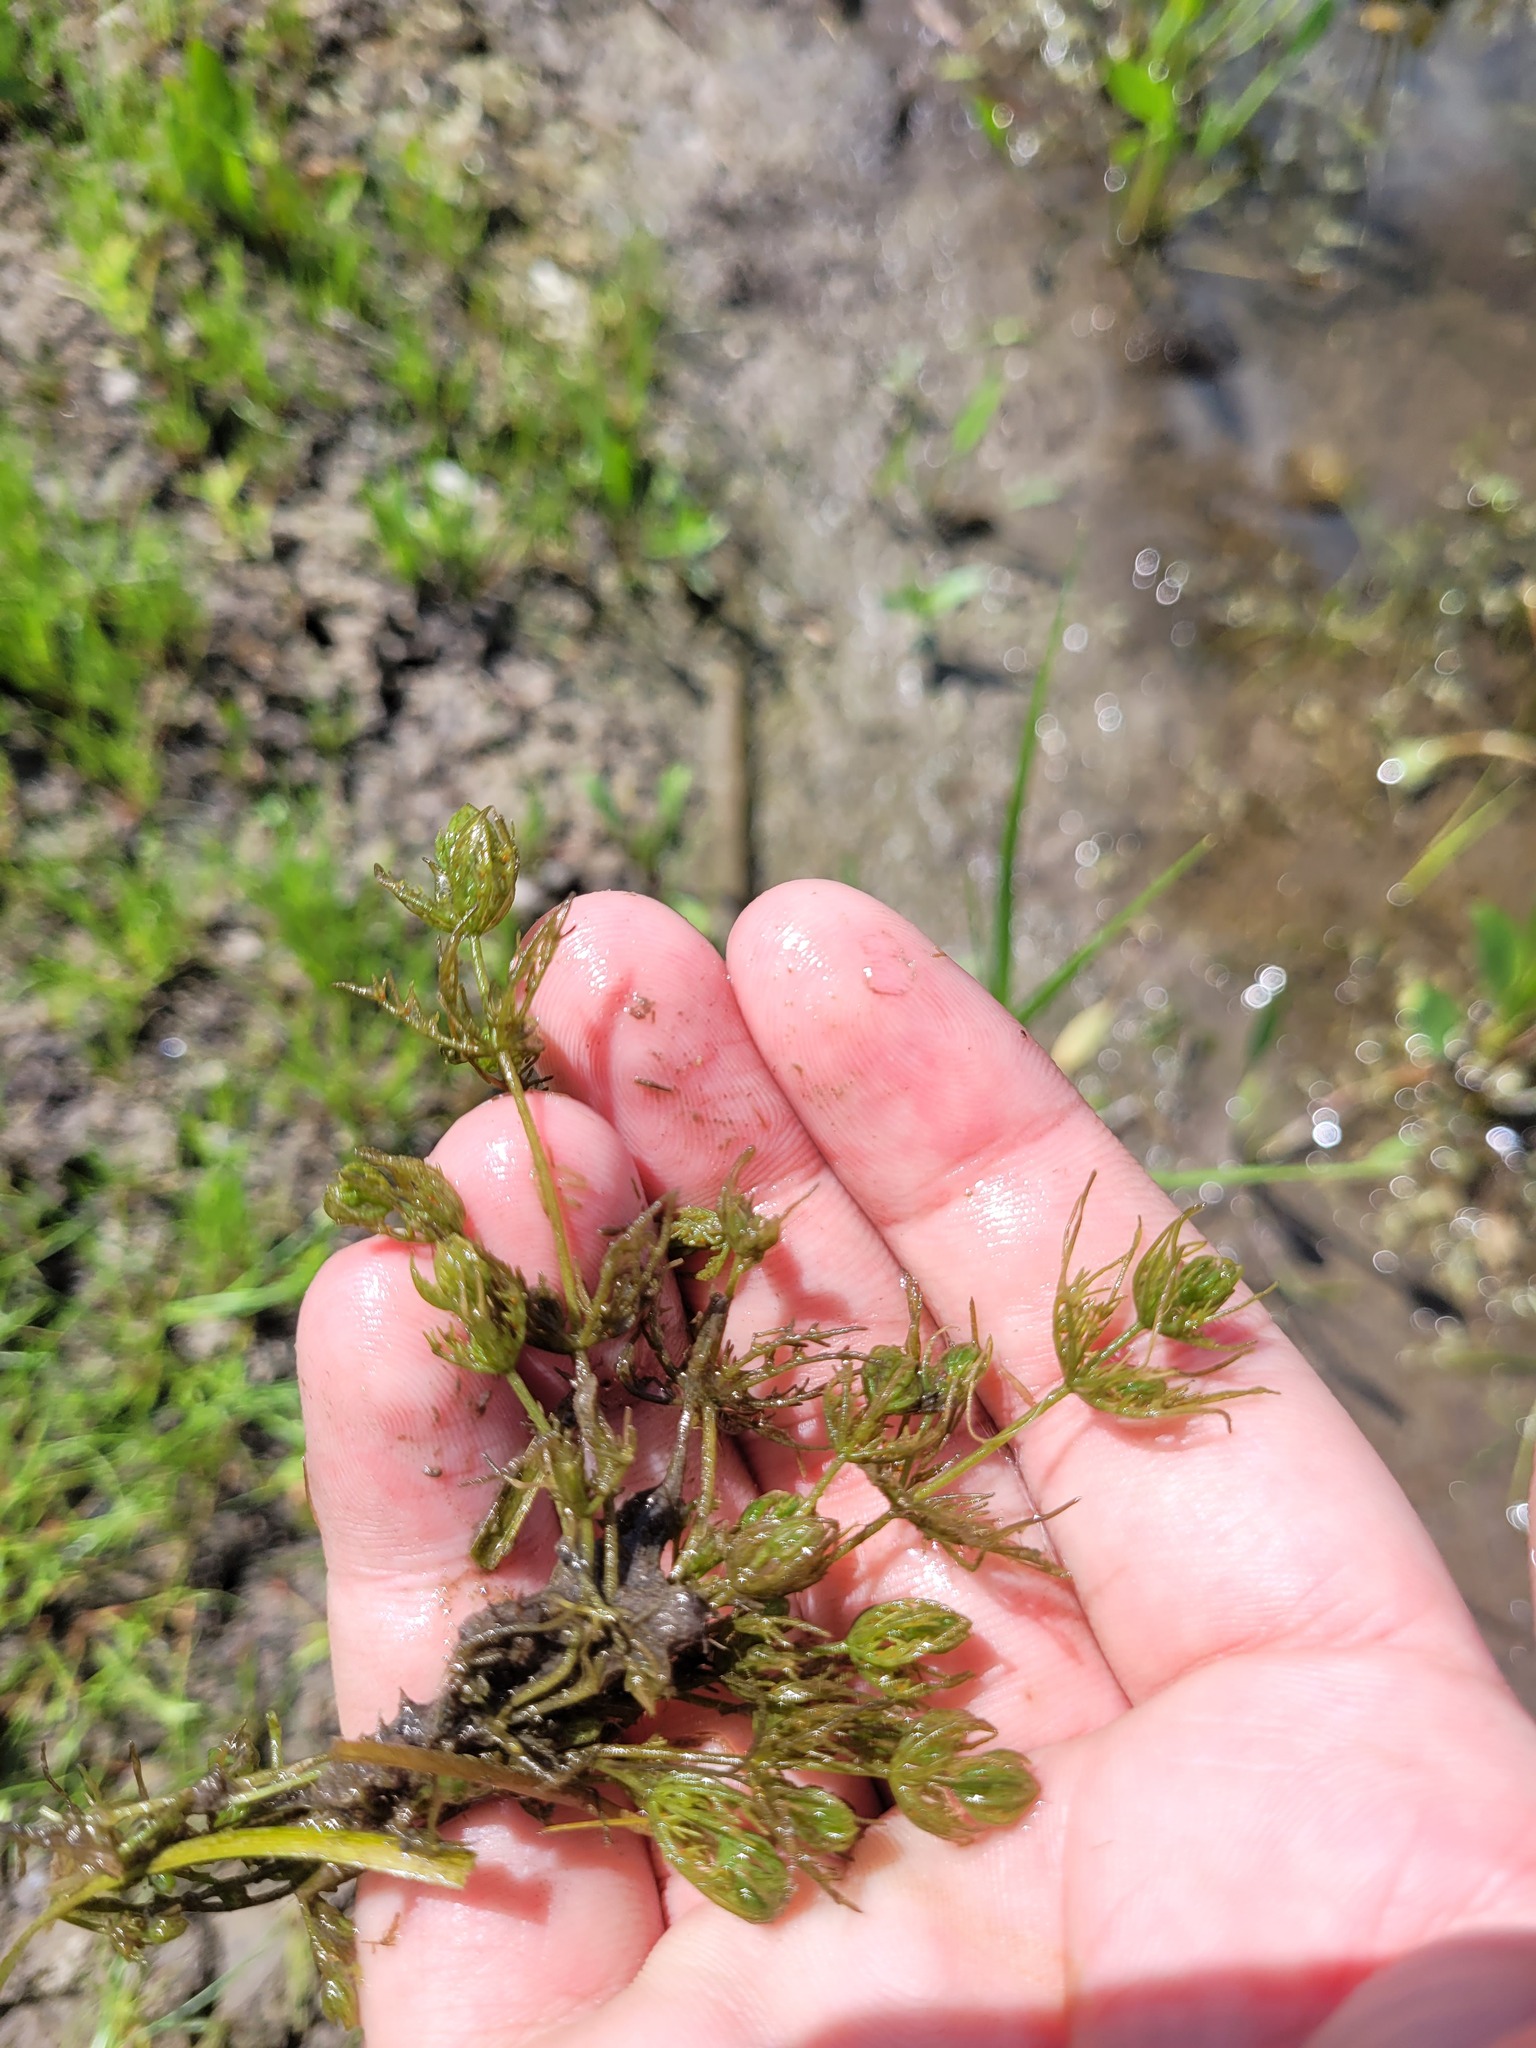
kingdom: Plantae
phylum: Charophyta
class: Charophyceae
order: Charales
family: Characeae
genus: Chara
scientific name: Chara vulgaris
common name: Common stonewort
